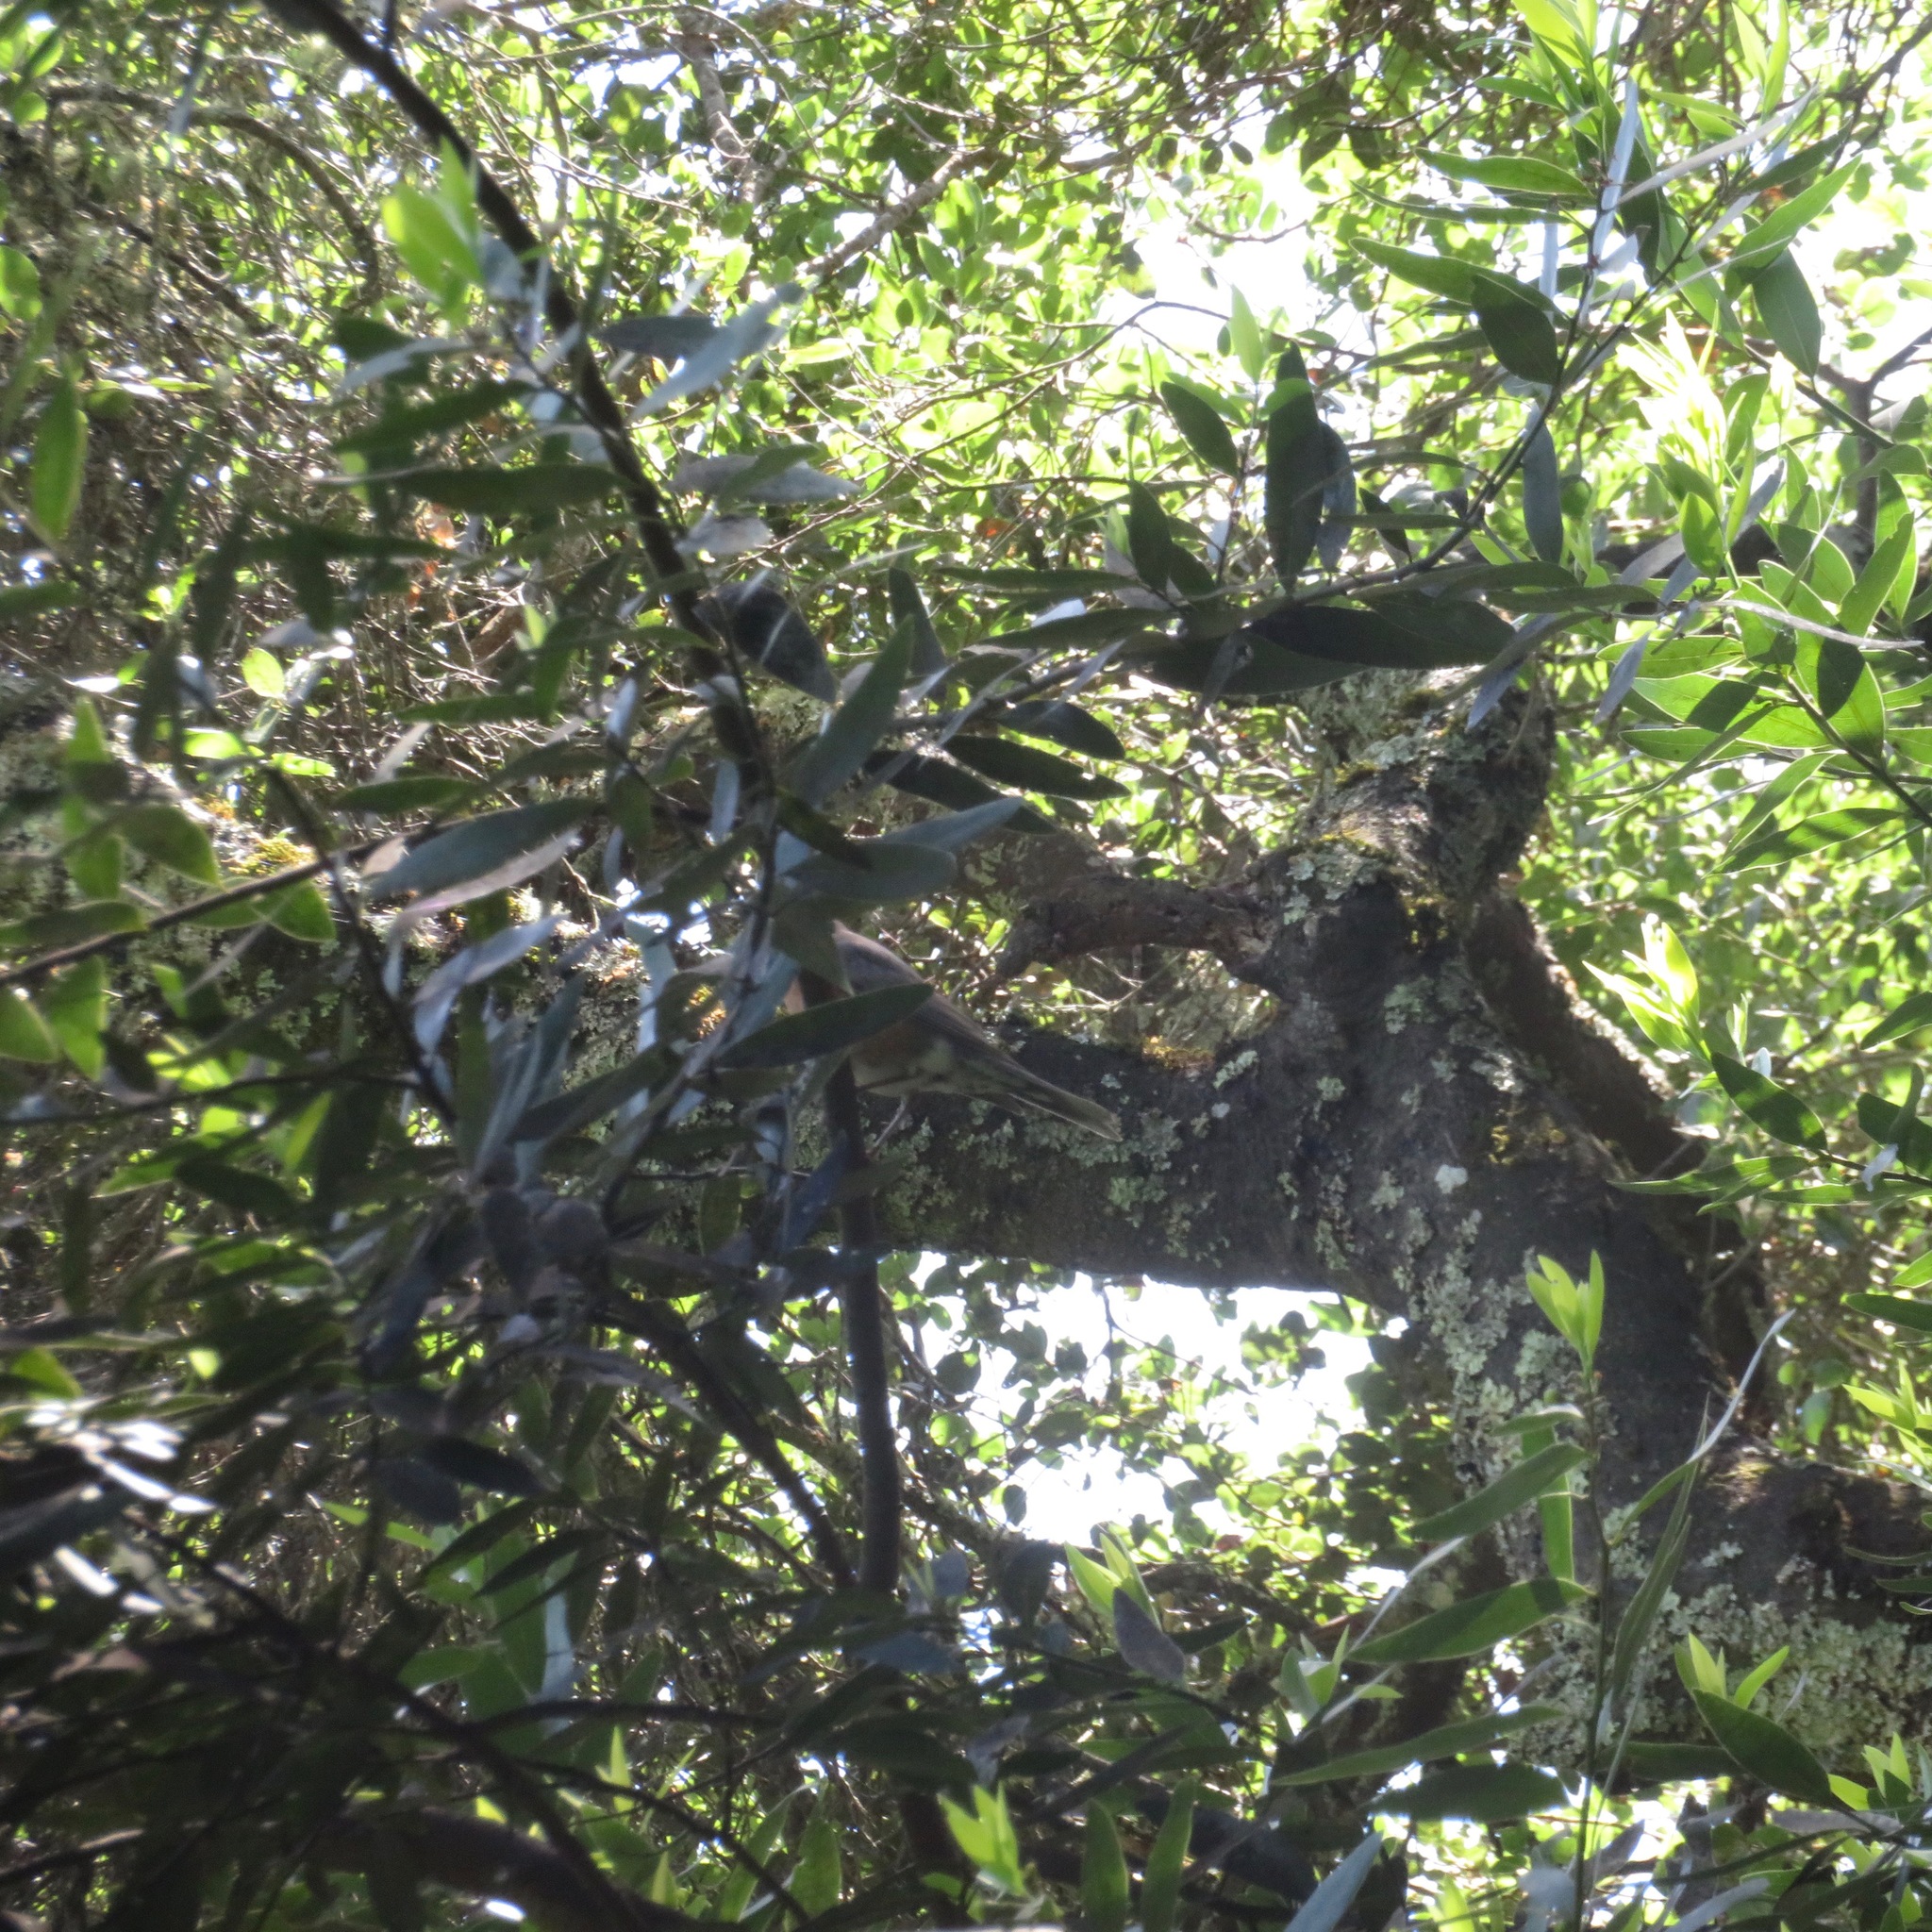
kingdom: Plantae
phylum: Tracheophyta
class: Magnoliopsida
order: Laurales
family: Lauraceae
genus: Umbellularia
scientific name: Umbellularia californica
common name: California bay
